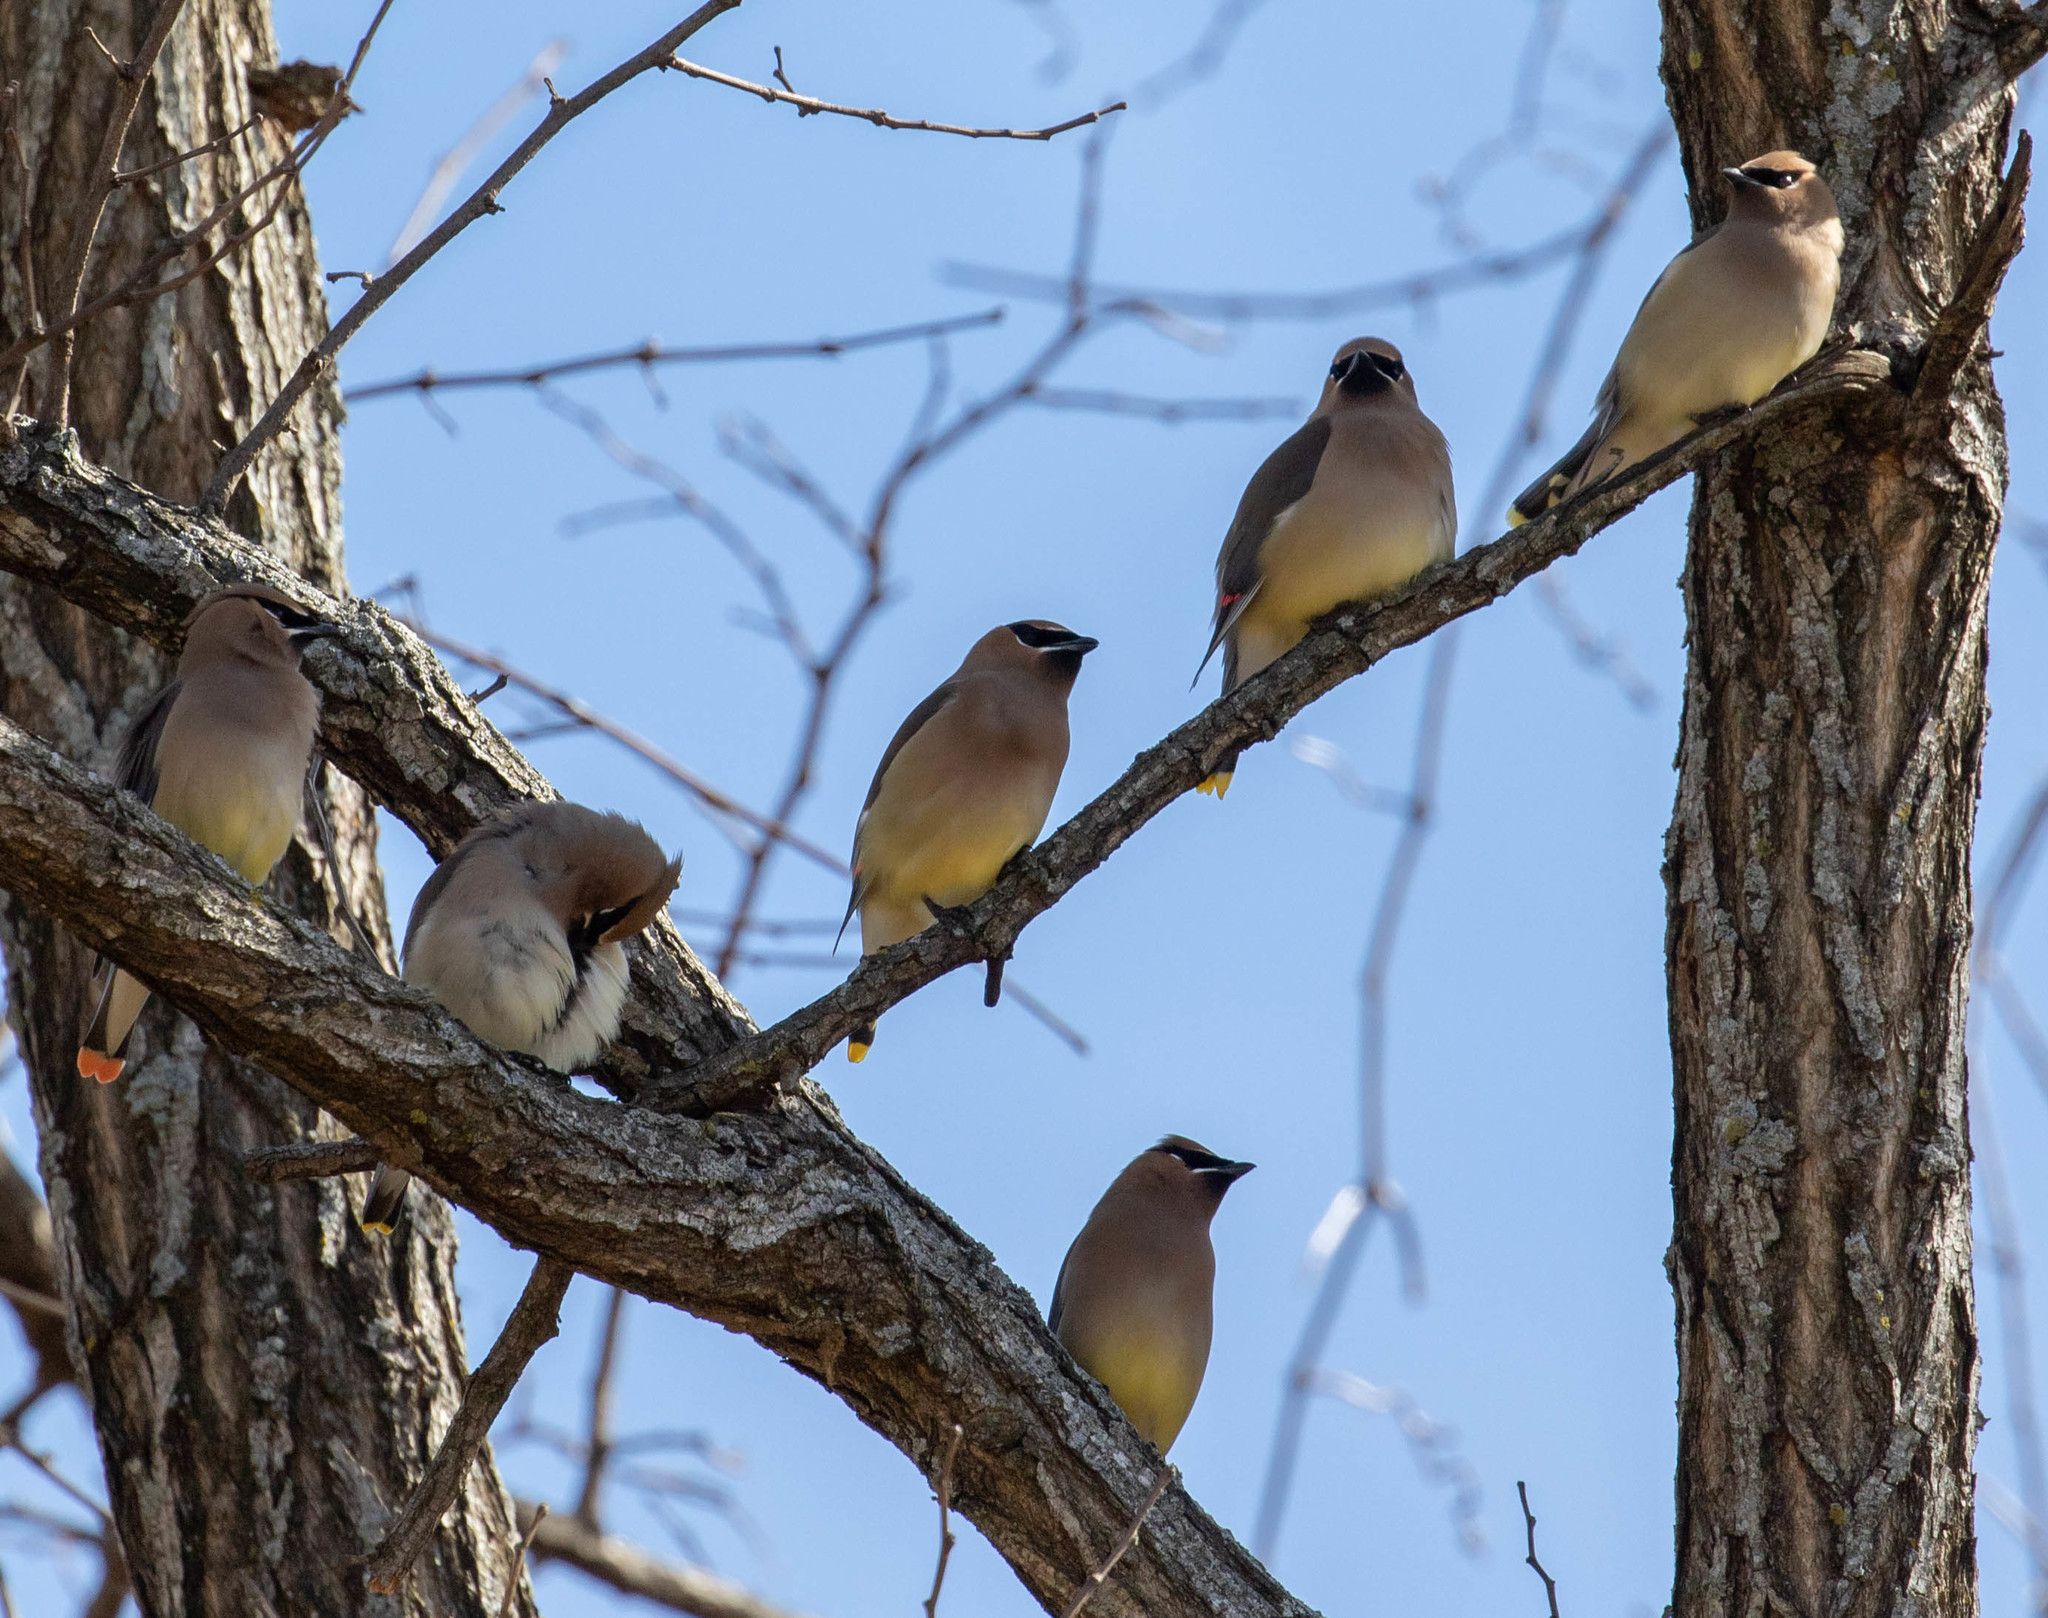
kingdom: Animalia
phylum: Chordata
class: Aves
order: Passeriformes
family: Bombycillidae
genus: Bombycilla
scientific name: Bombycilla cedrorum
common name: Cedar waxwing
